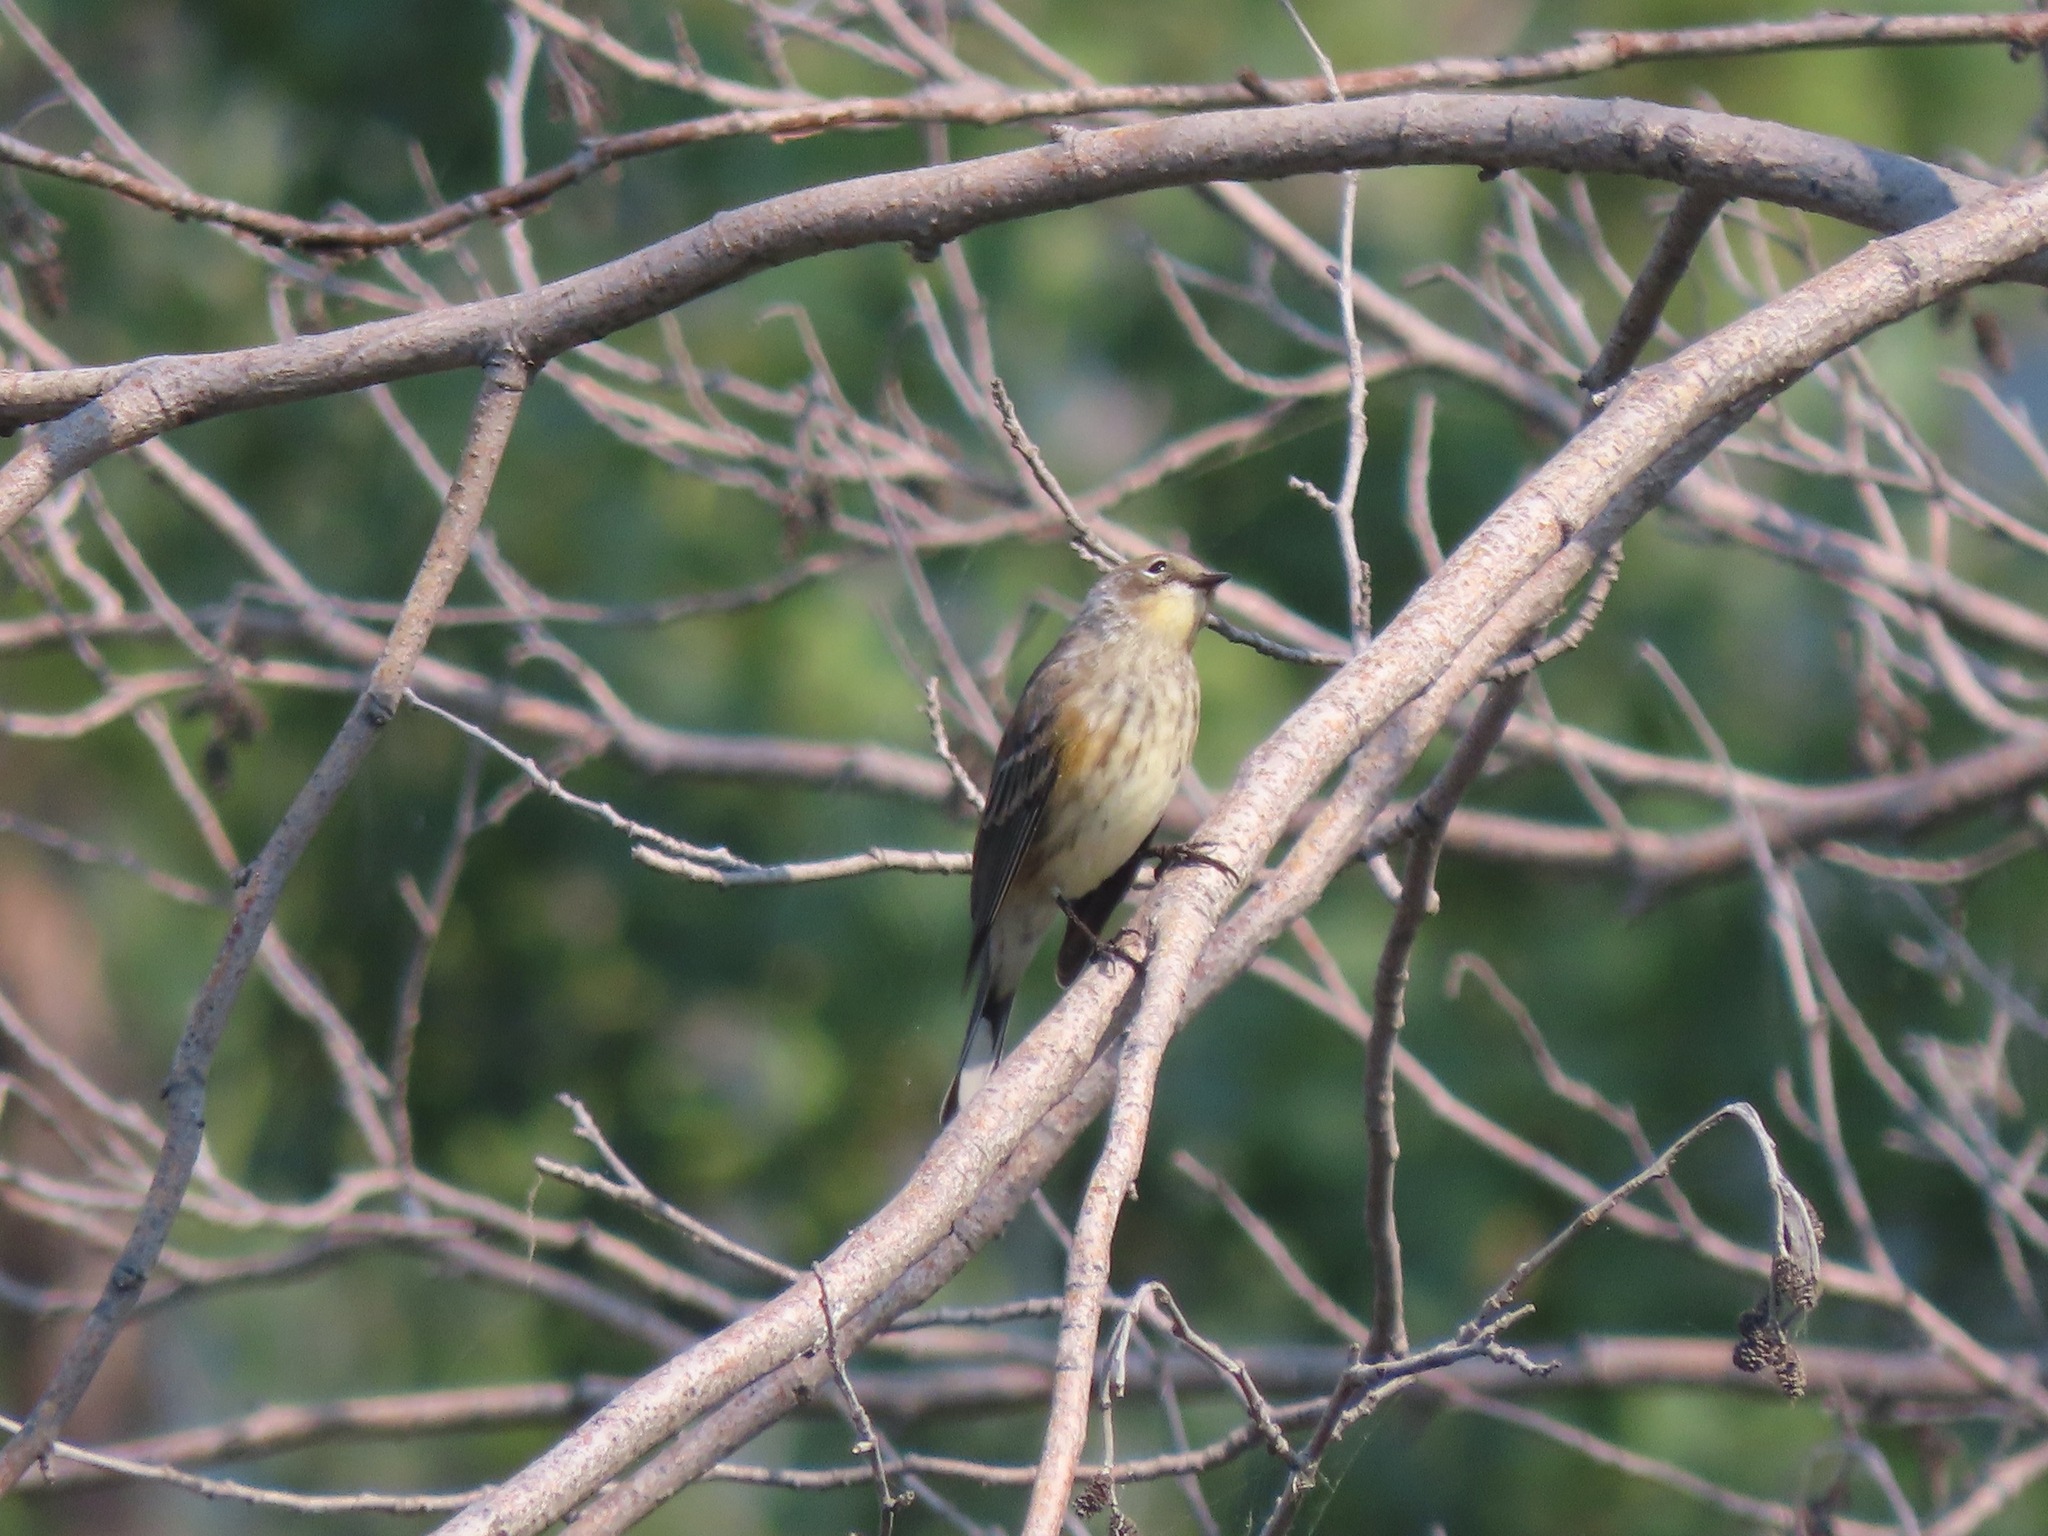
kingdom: Animalia
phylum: Chordata
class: Aves
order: Passeriformes
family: Parulidae
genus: Setophaga
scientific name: Setophaga coronata
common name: Myrtle warbler
